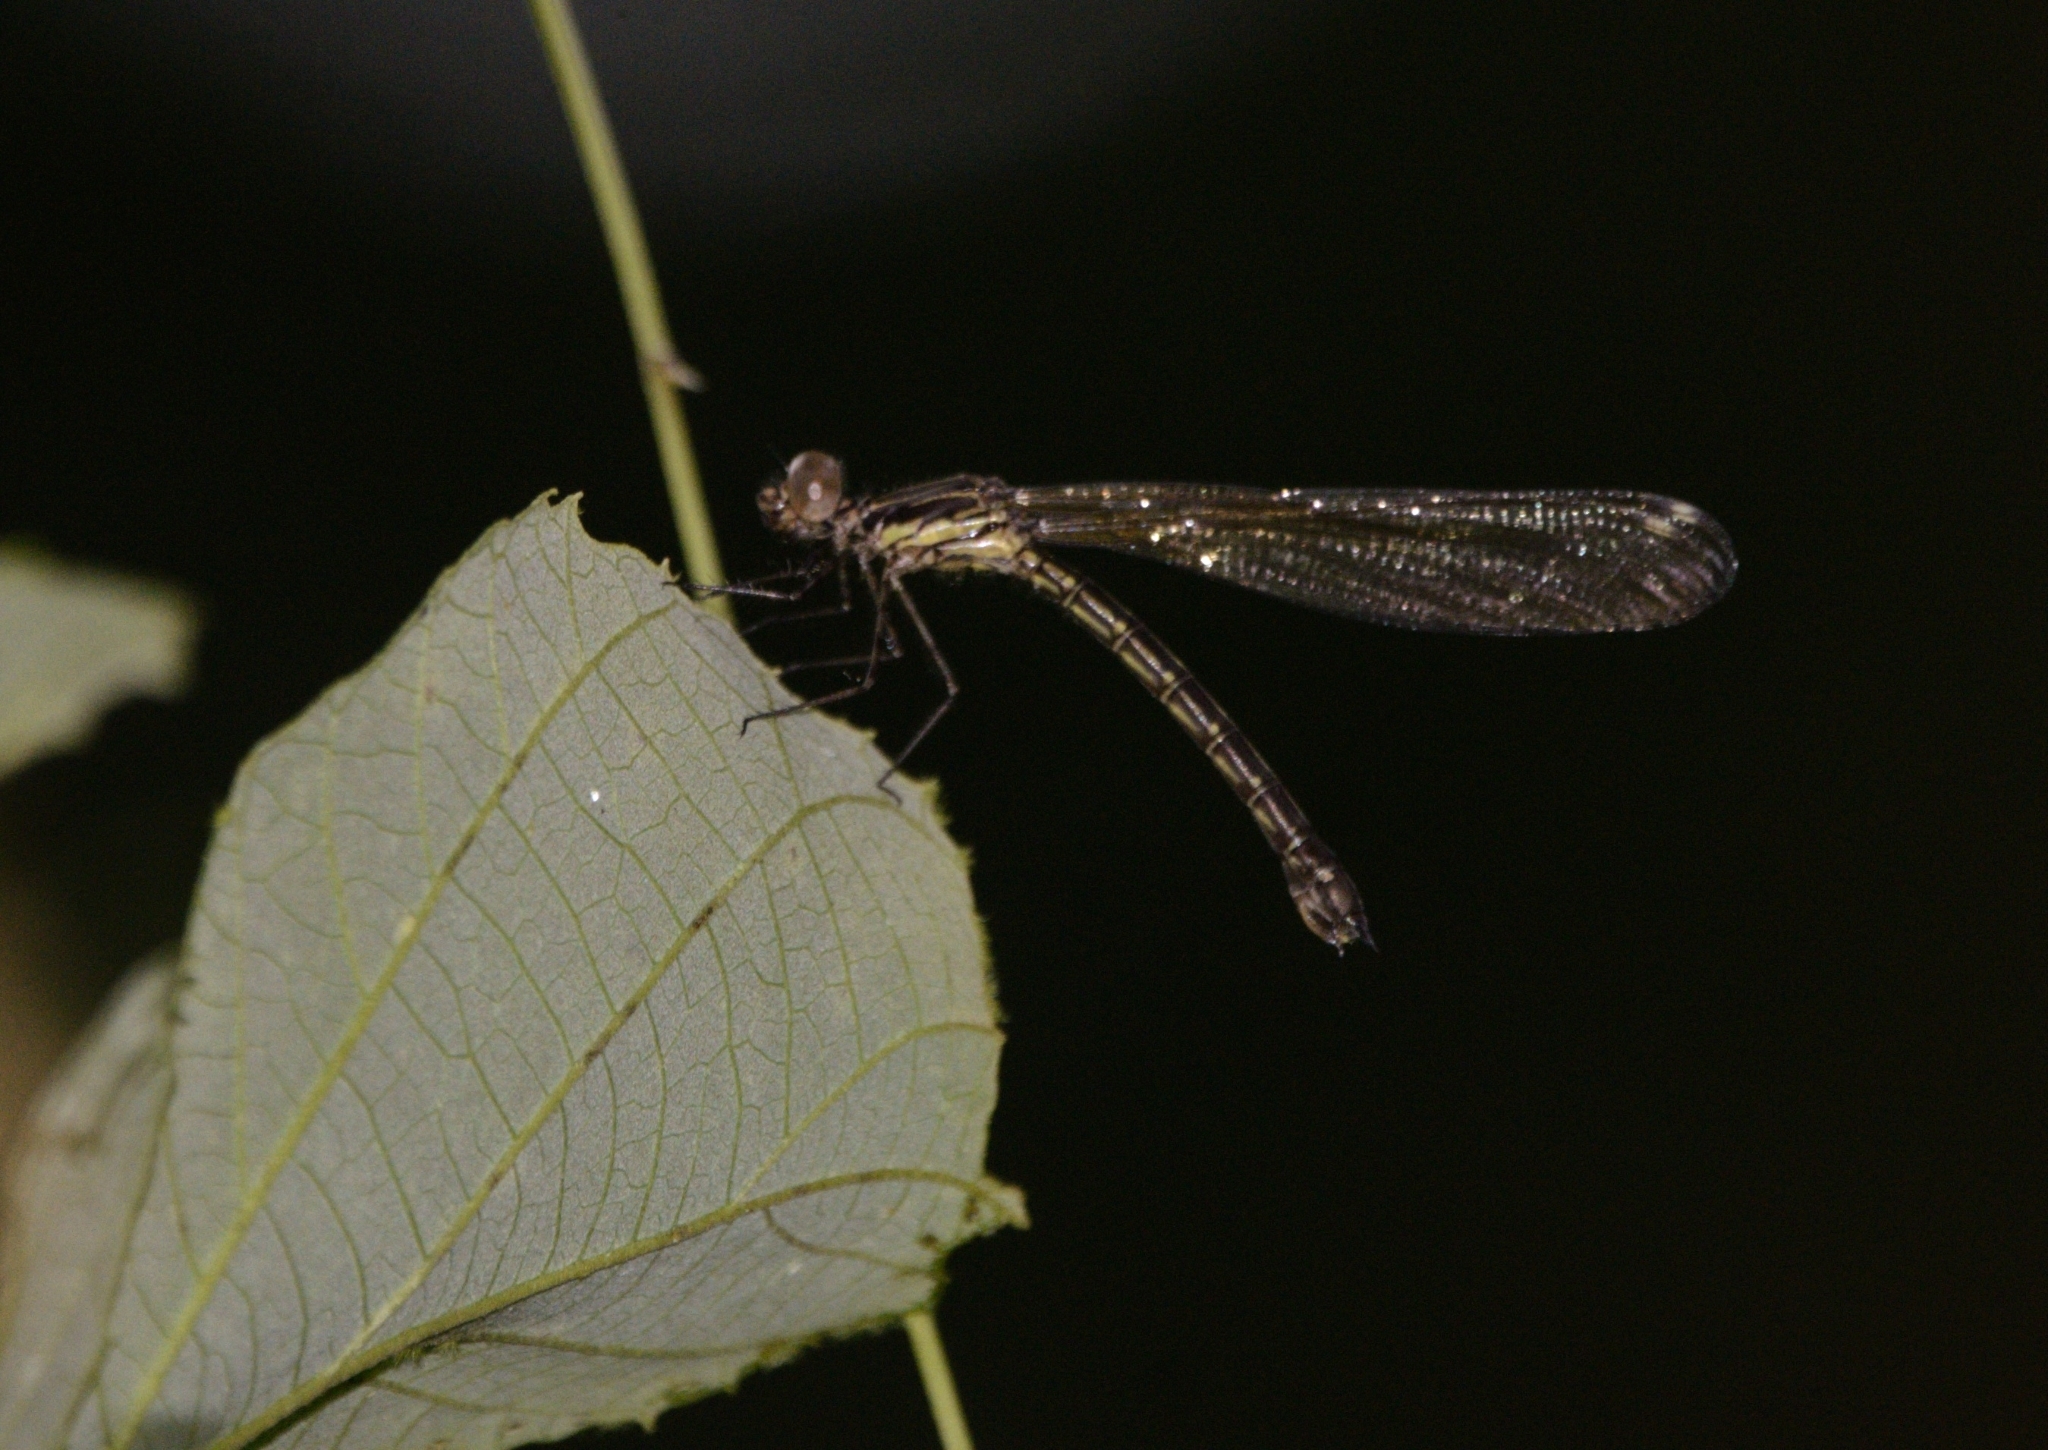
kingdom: Animalia
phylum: Arthropoda
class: Insecta
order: Odonata
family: Chlorocyphidae
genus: Heliocypha
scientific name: Heliocypha bisignata
